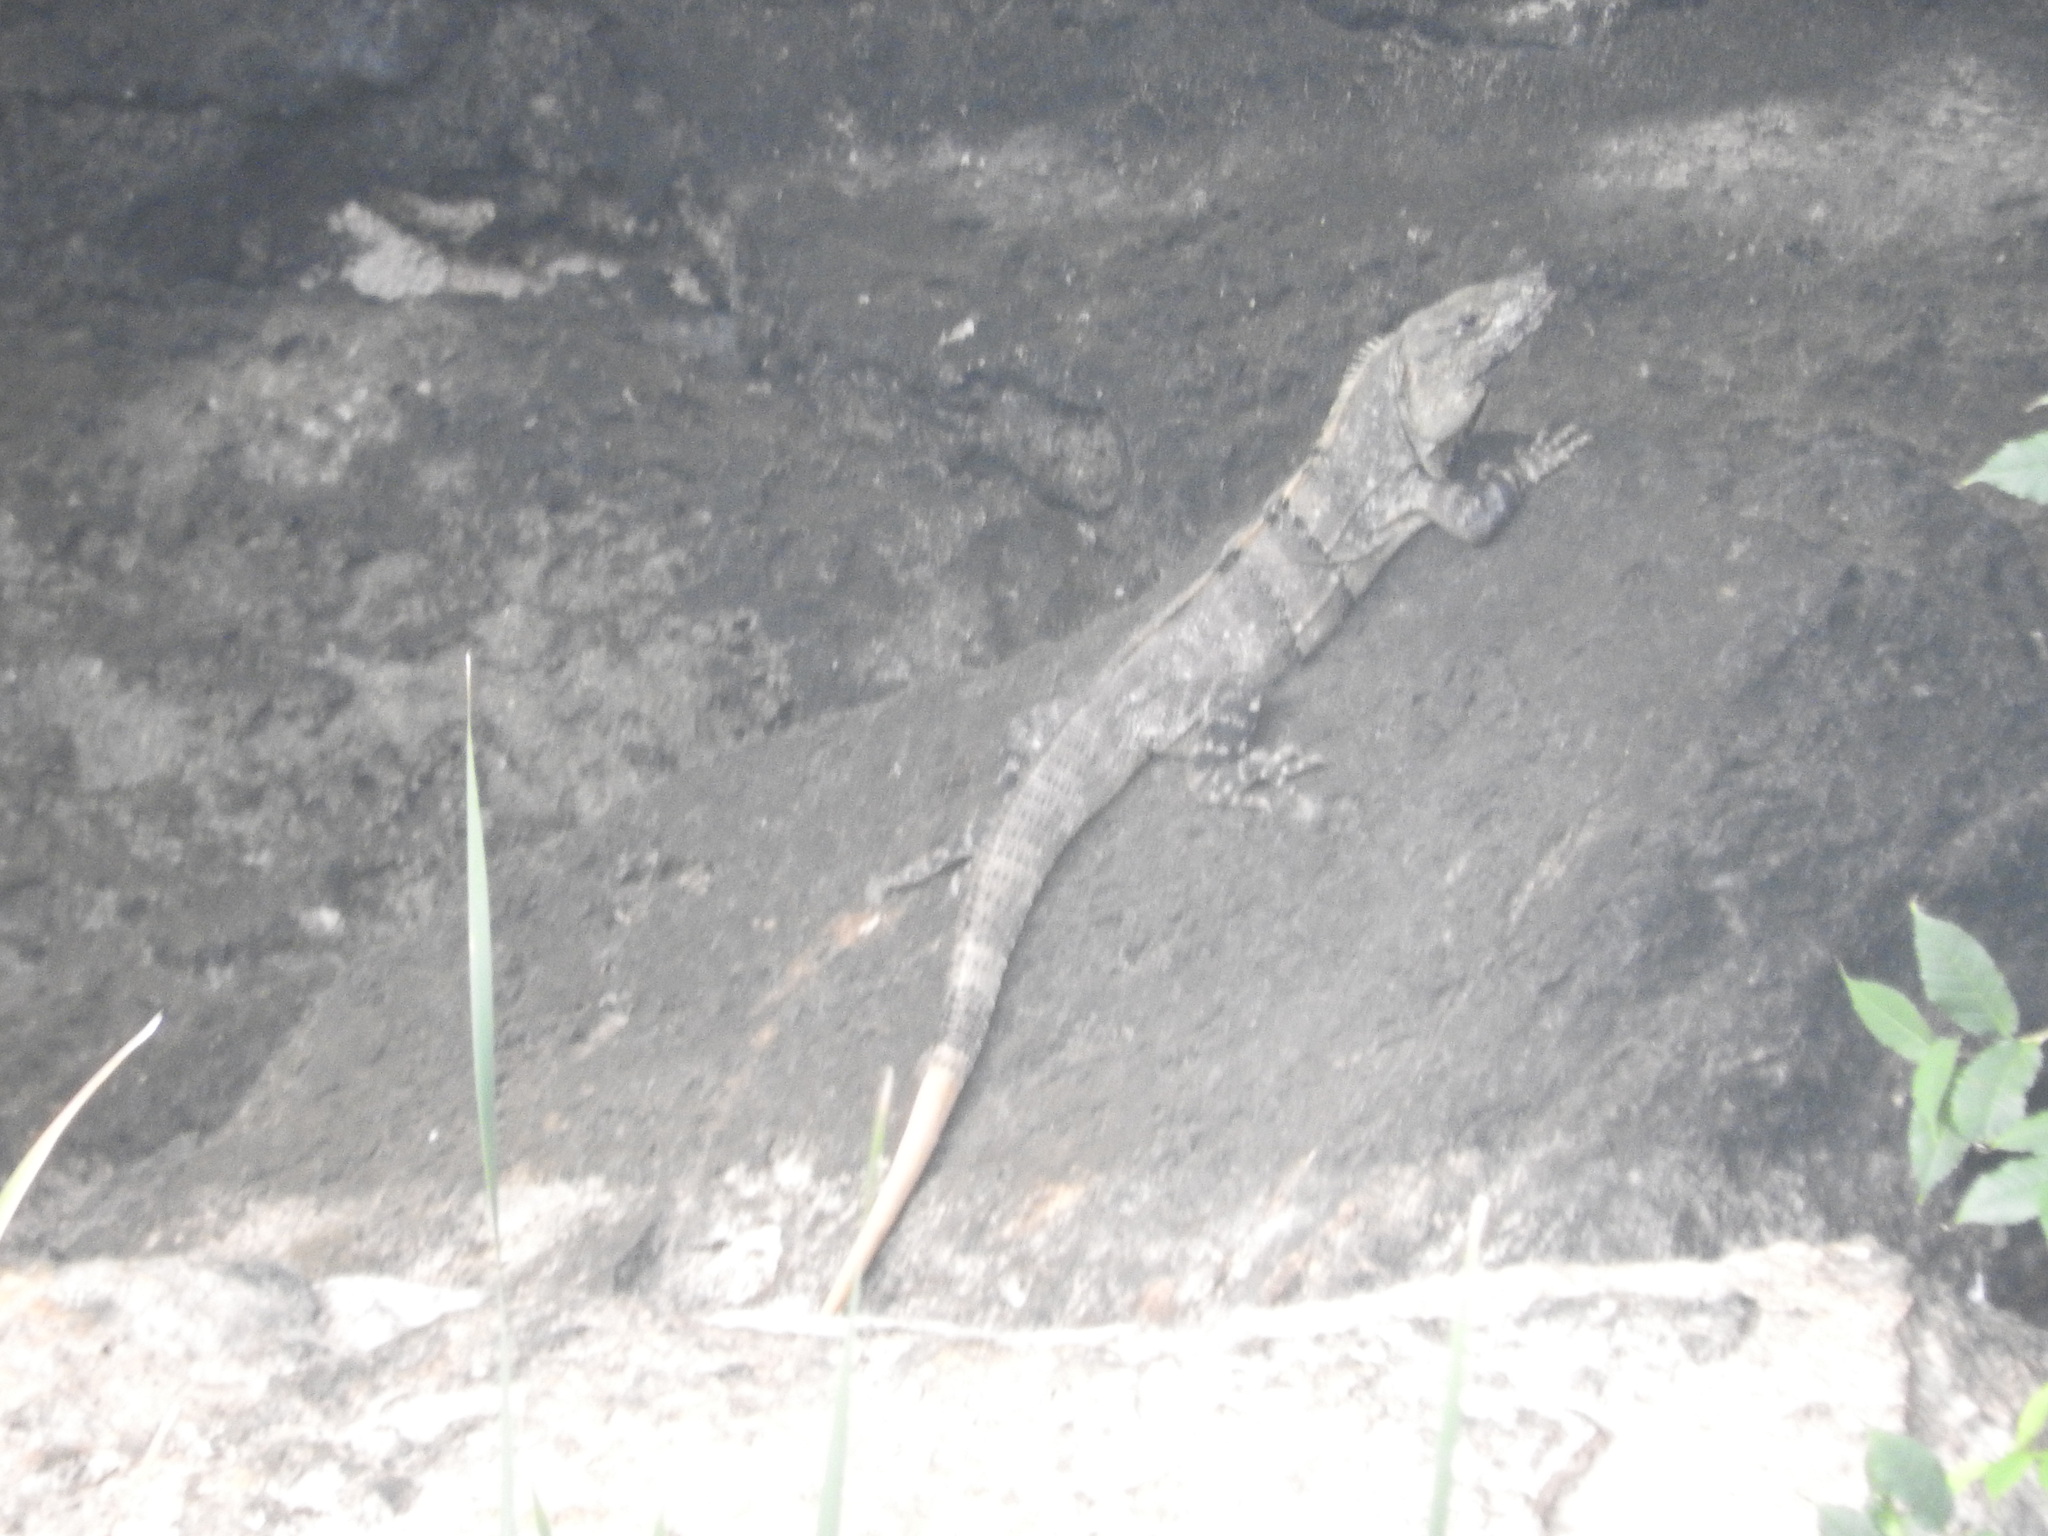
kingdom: Animalia
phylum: Chordata
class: Squamata
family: Iguanidae
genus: Ctenosaura
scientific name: Ctenosaura similis
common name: Black spiny-tailed iguana
